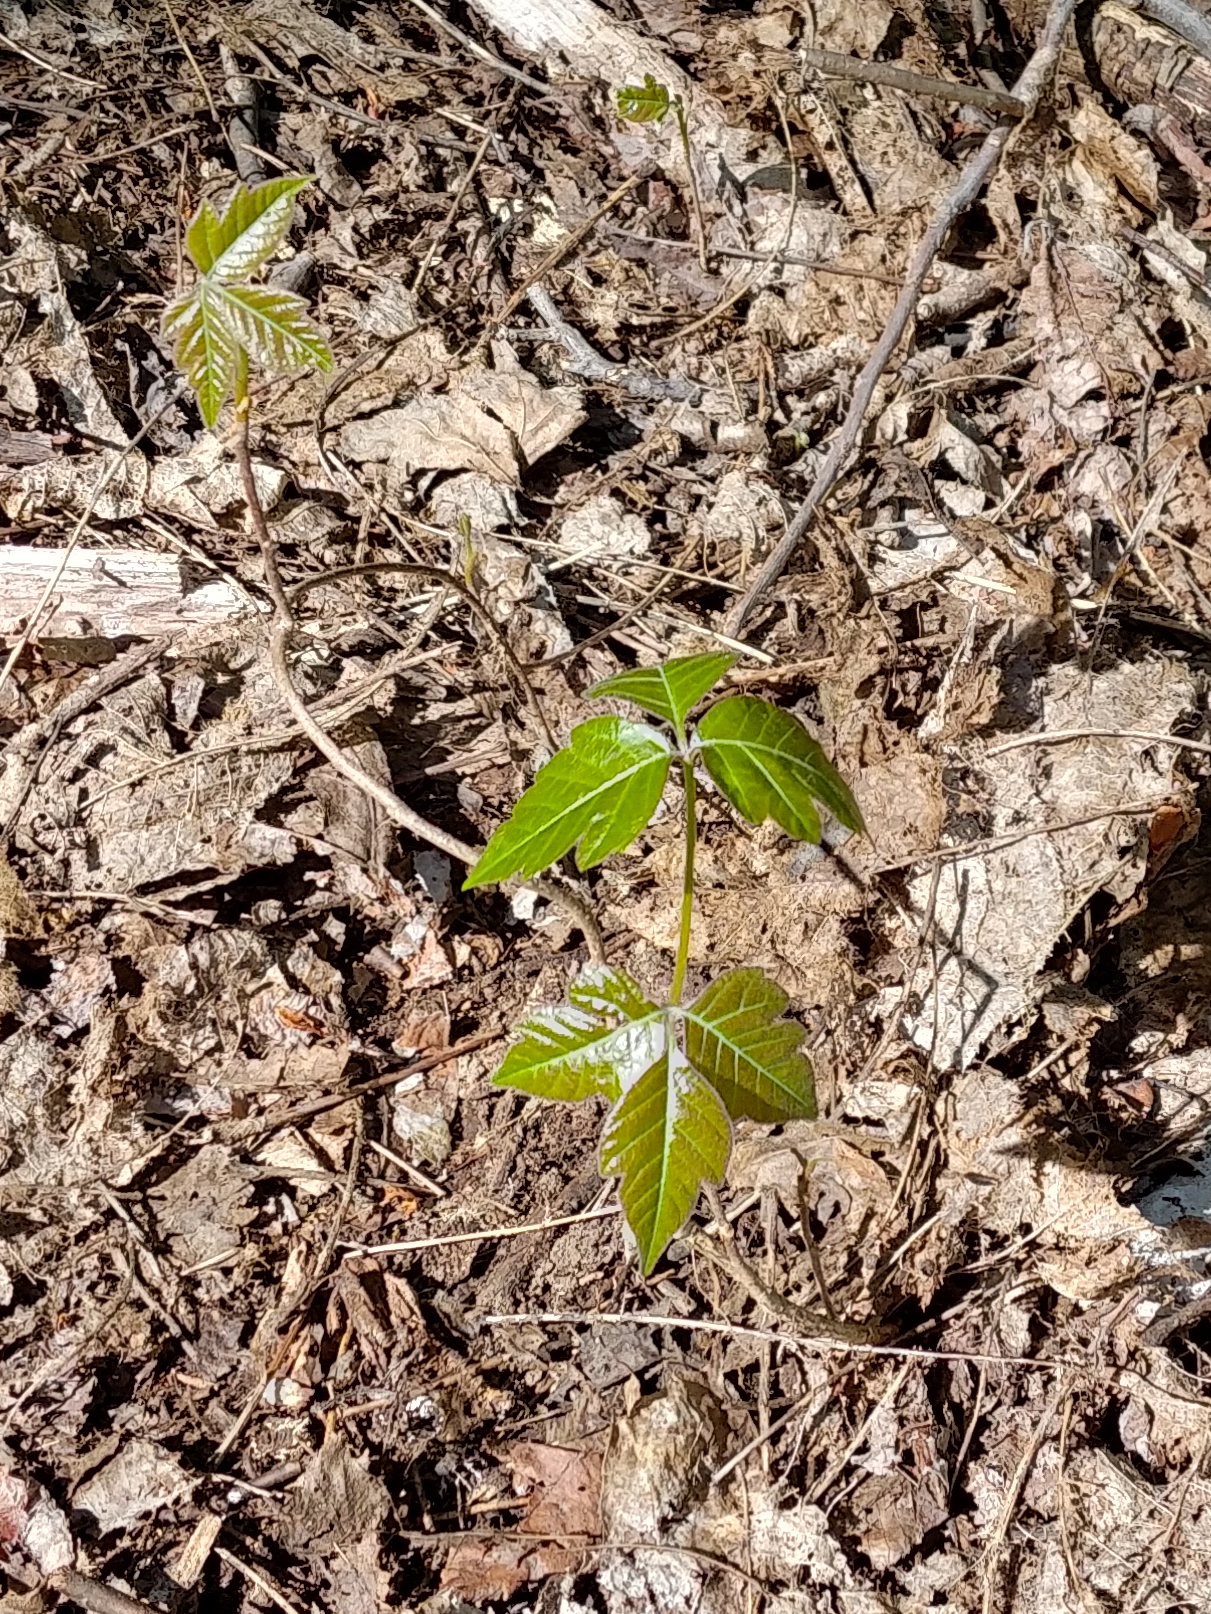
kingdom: Plantae
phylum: Tracheophyta
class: Magnoliopsida
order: Sapindales
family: Anacardiaceae
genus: Toxicodendron
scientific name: Toxicodendron radicans
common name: Poison ivy
